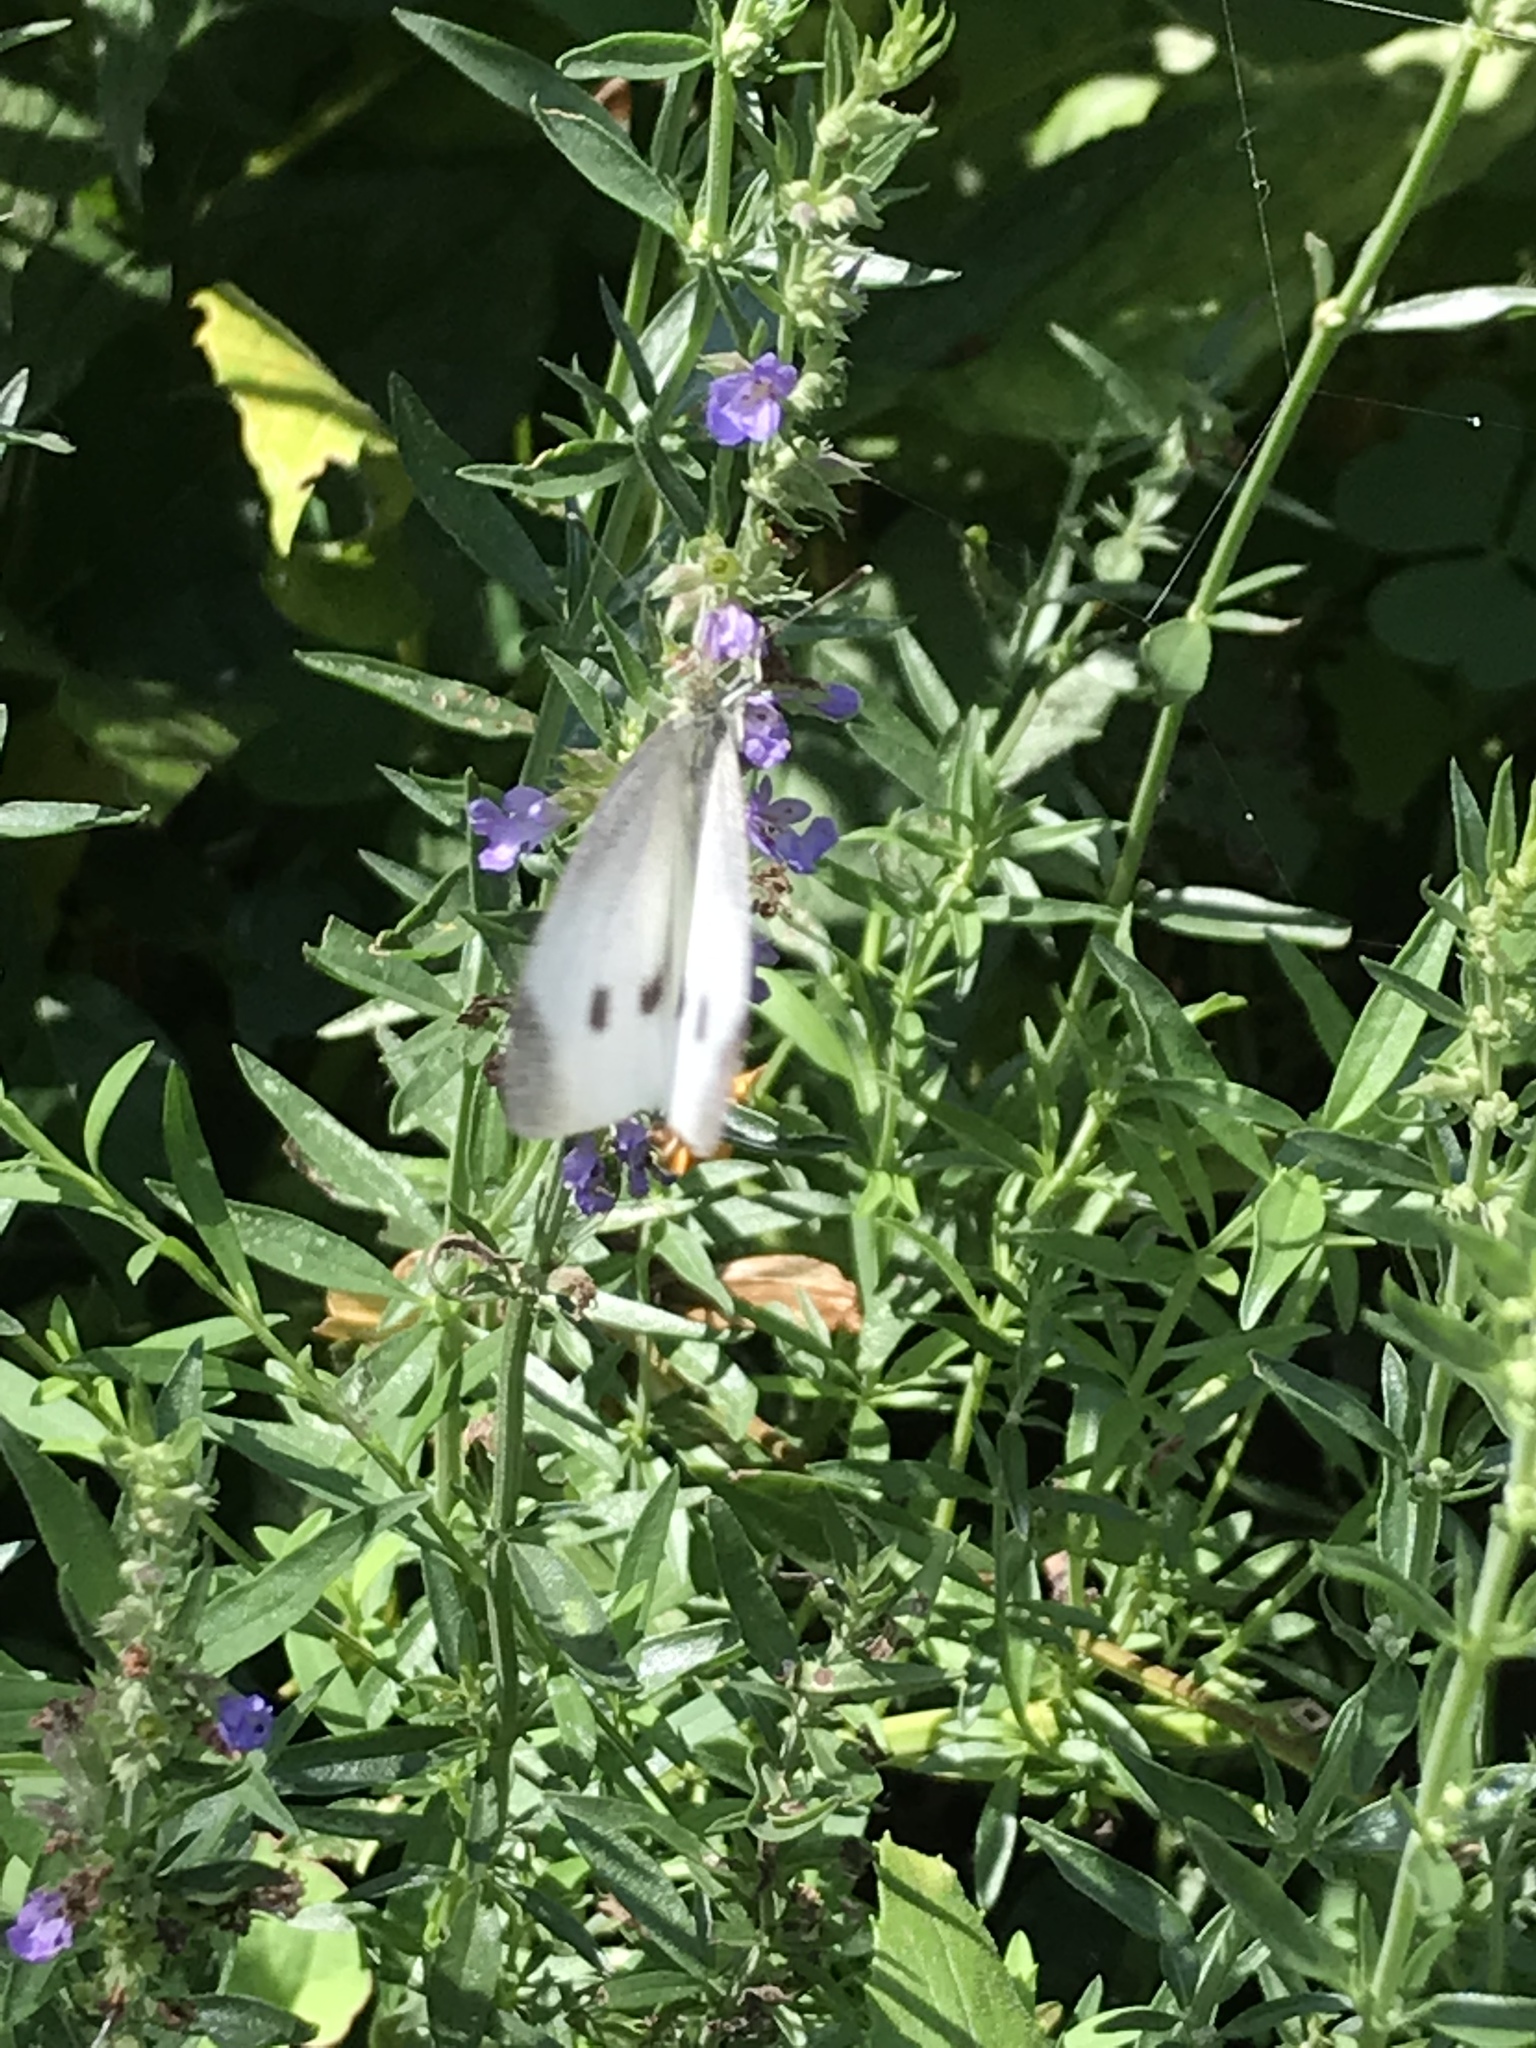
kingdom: Animalia
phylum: Arthropoda
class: Insecta
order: Lepidoptera
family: Pieridae
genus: Pieris
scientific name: Pieris rapae
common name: Small white
